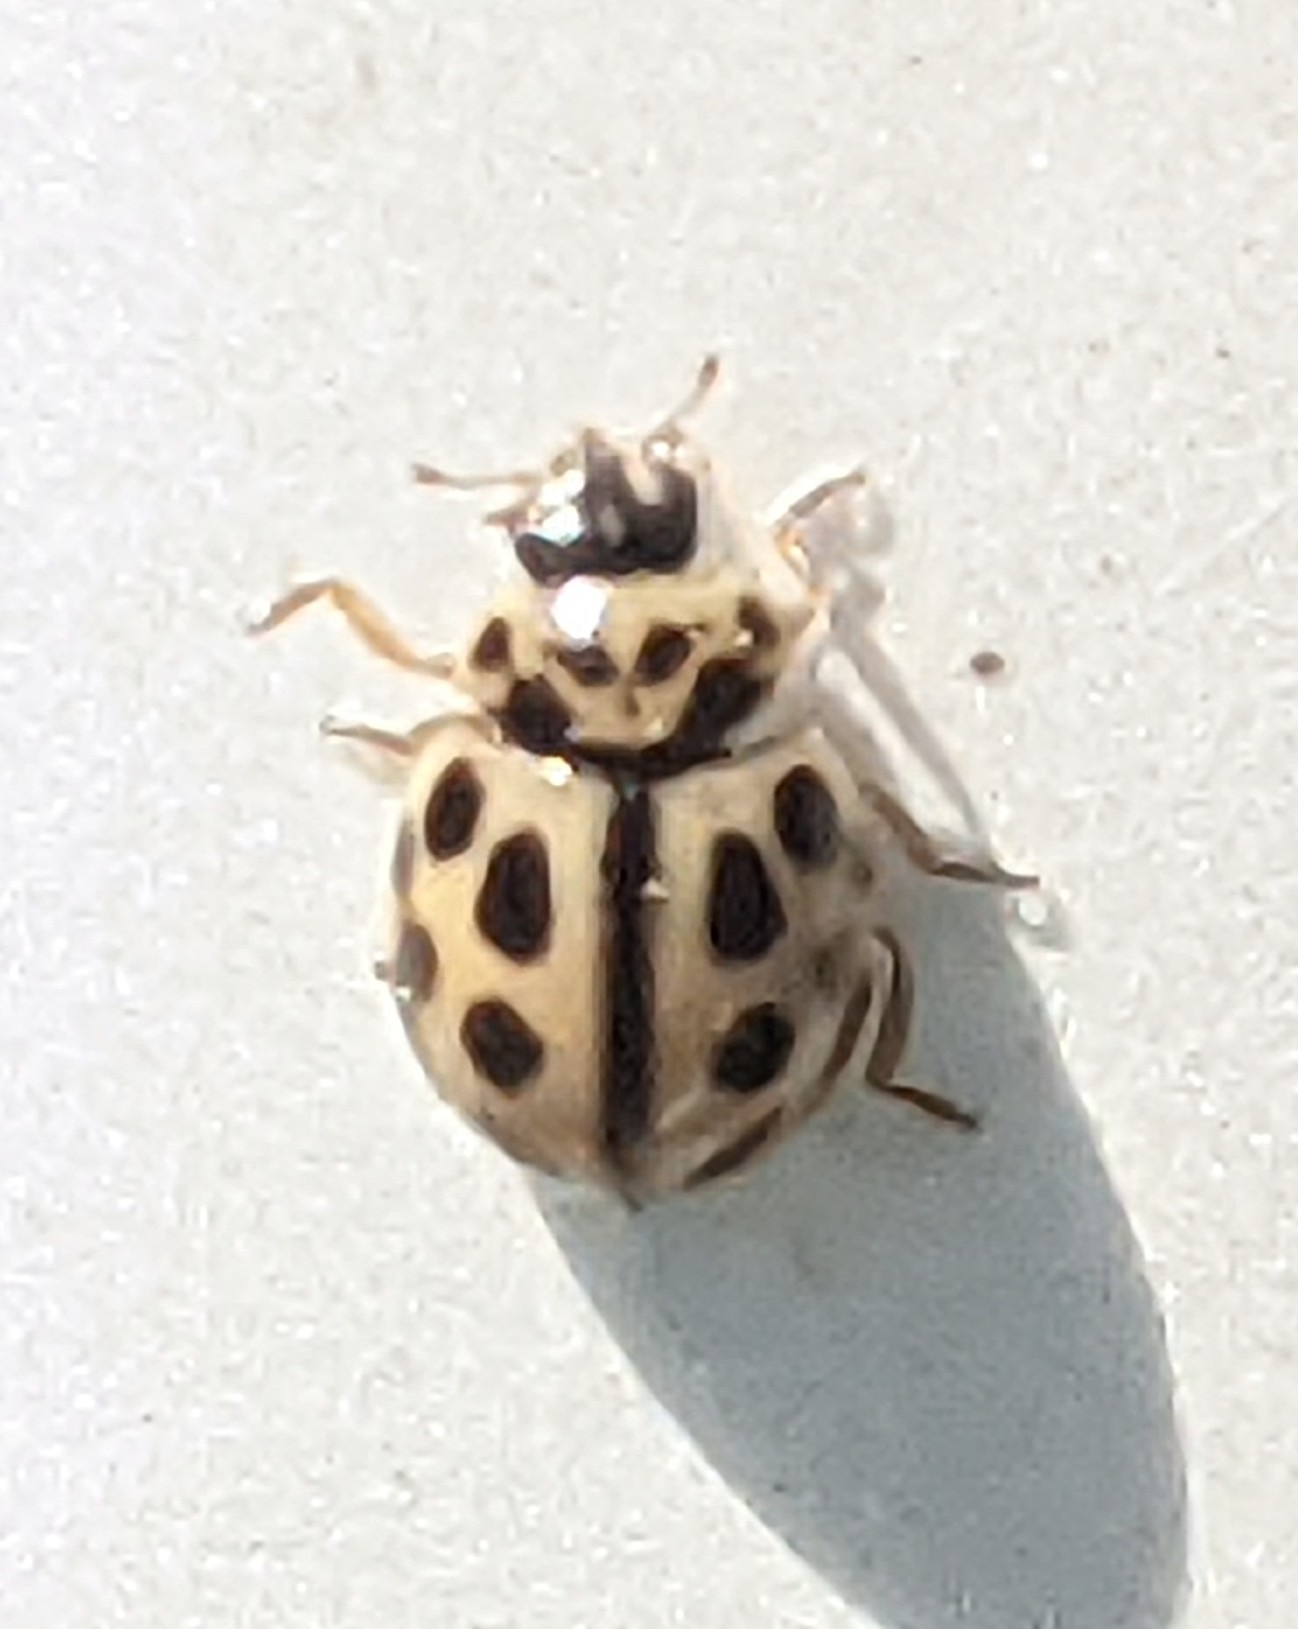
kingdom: Animalia
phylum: Arthropoda
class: Insecta
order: Coleoptera
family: Coccinellidae
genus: Tytthaspis
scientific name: Tytthaspis sedecimpunctata
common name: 16-spot ladybird
